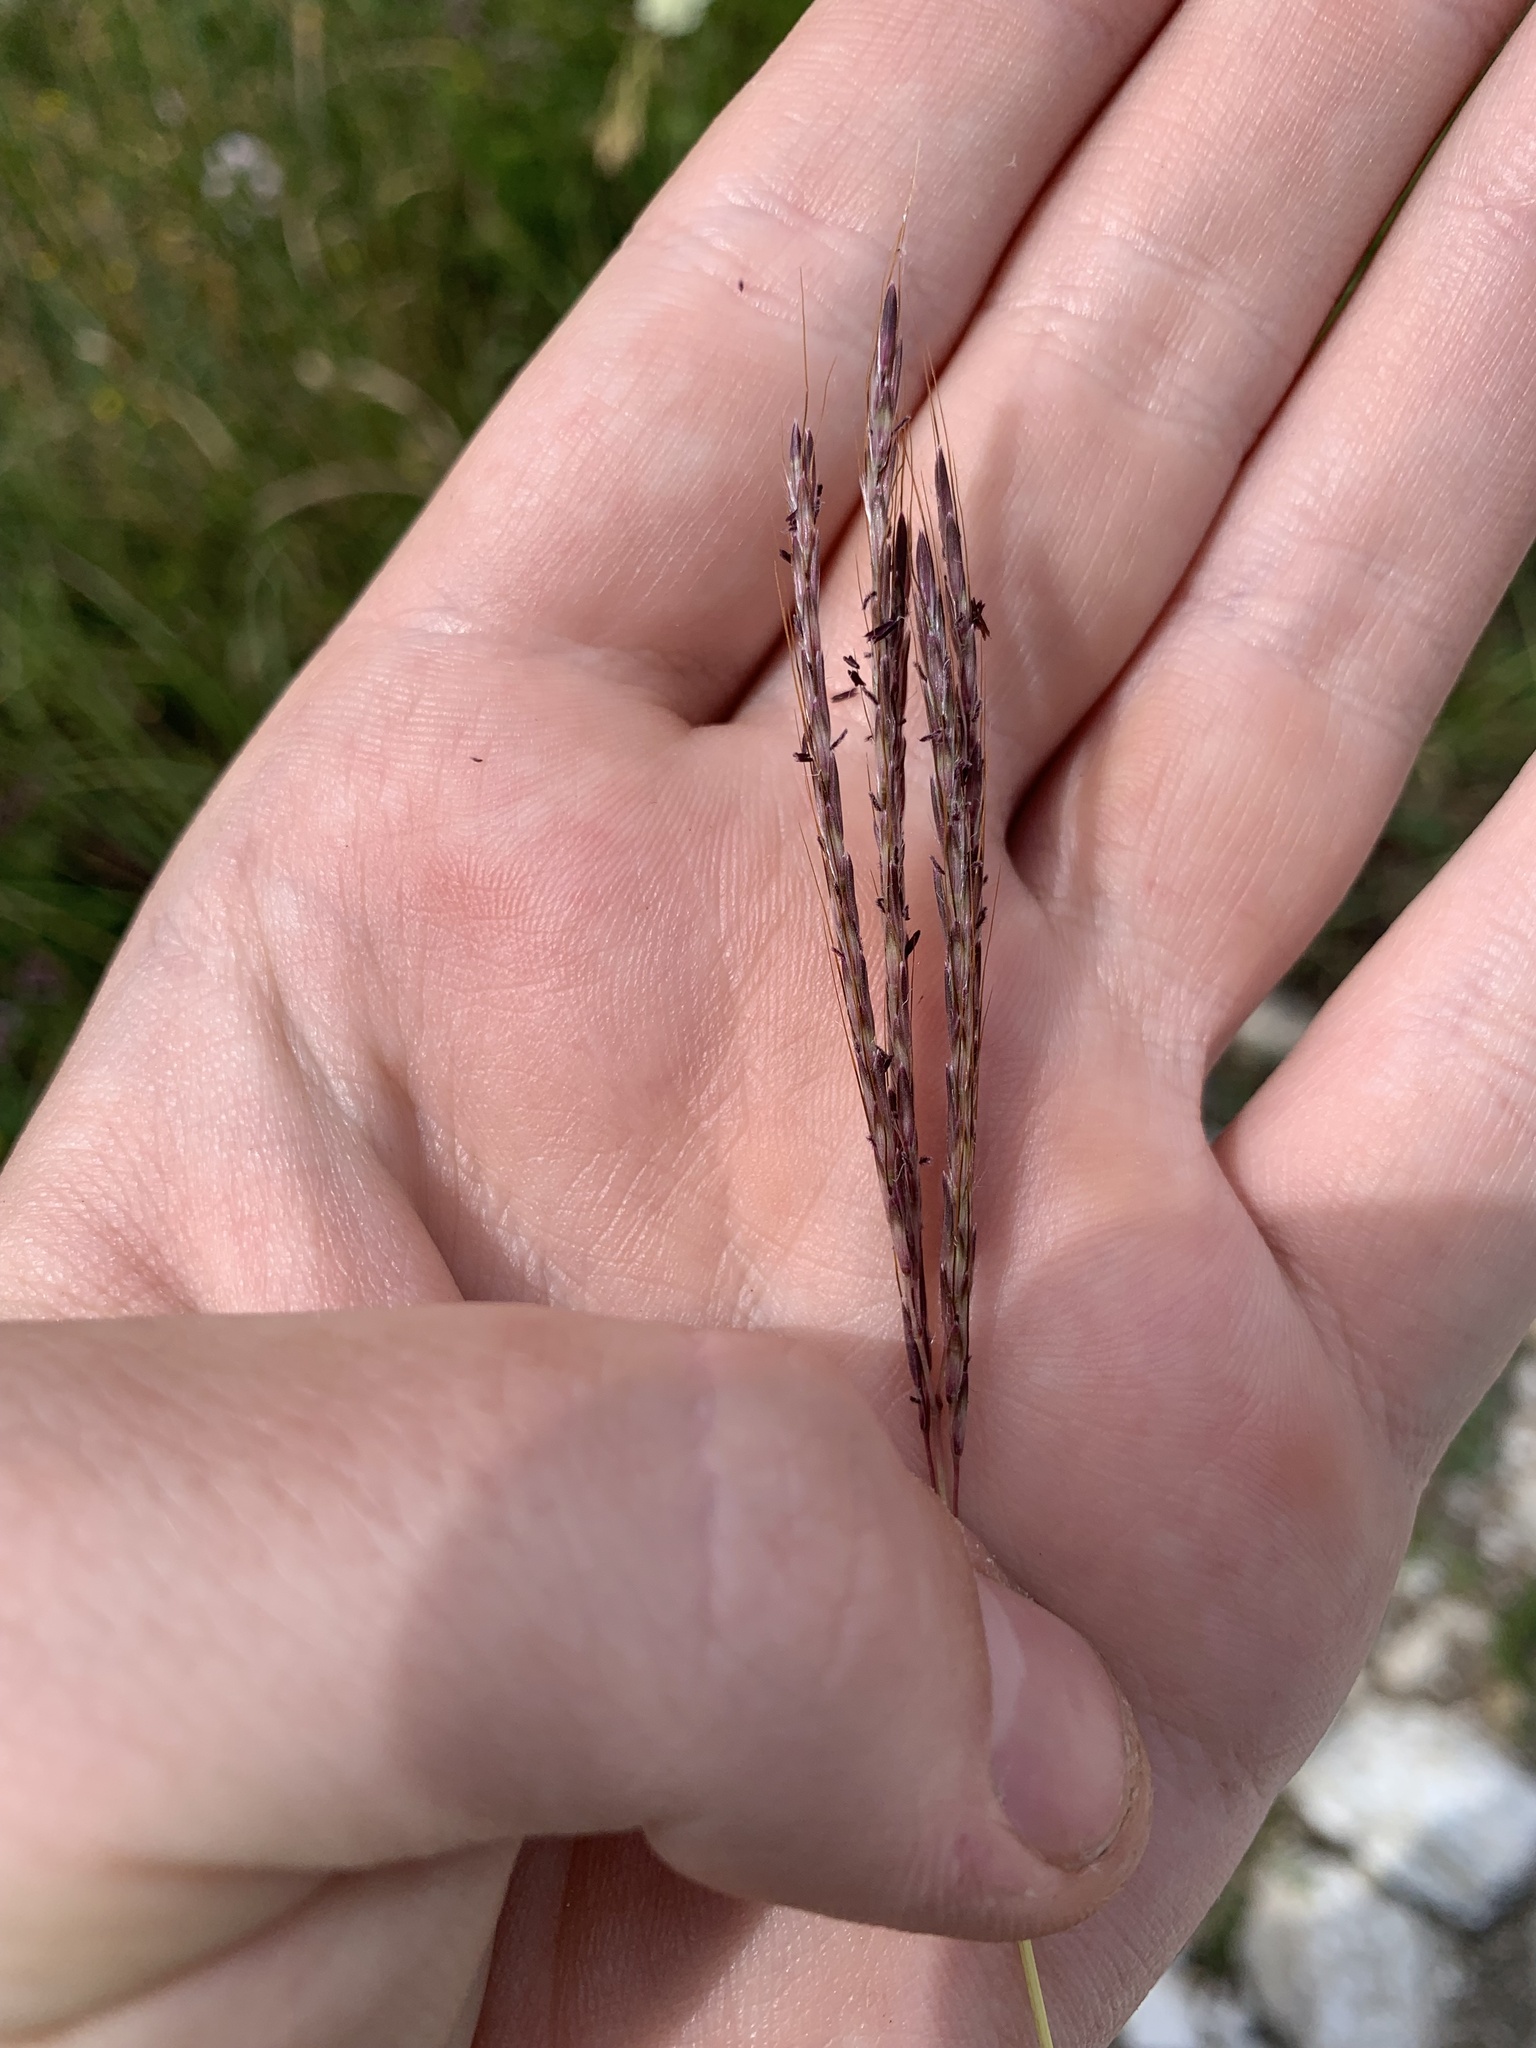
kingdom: Plantae
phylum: Tracheophyta
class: Liliopsida
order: Poales
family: Poaceae
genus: Bothriochloa
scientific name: Bothriochloa ischaemum
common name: Yellow bluestem
